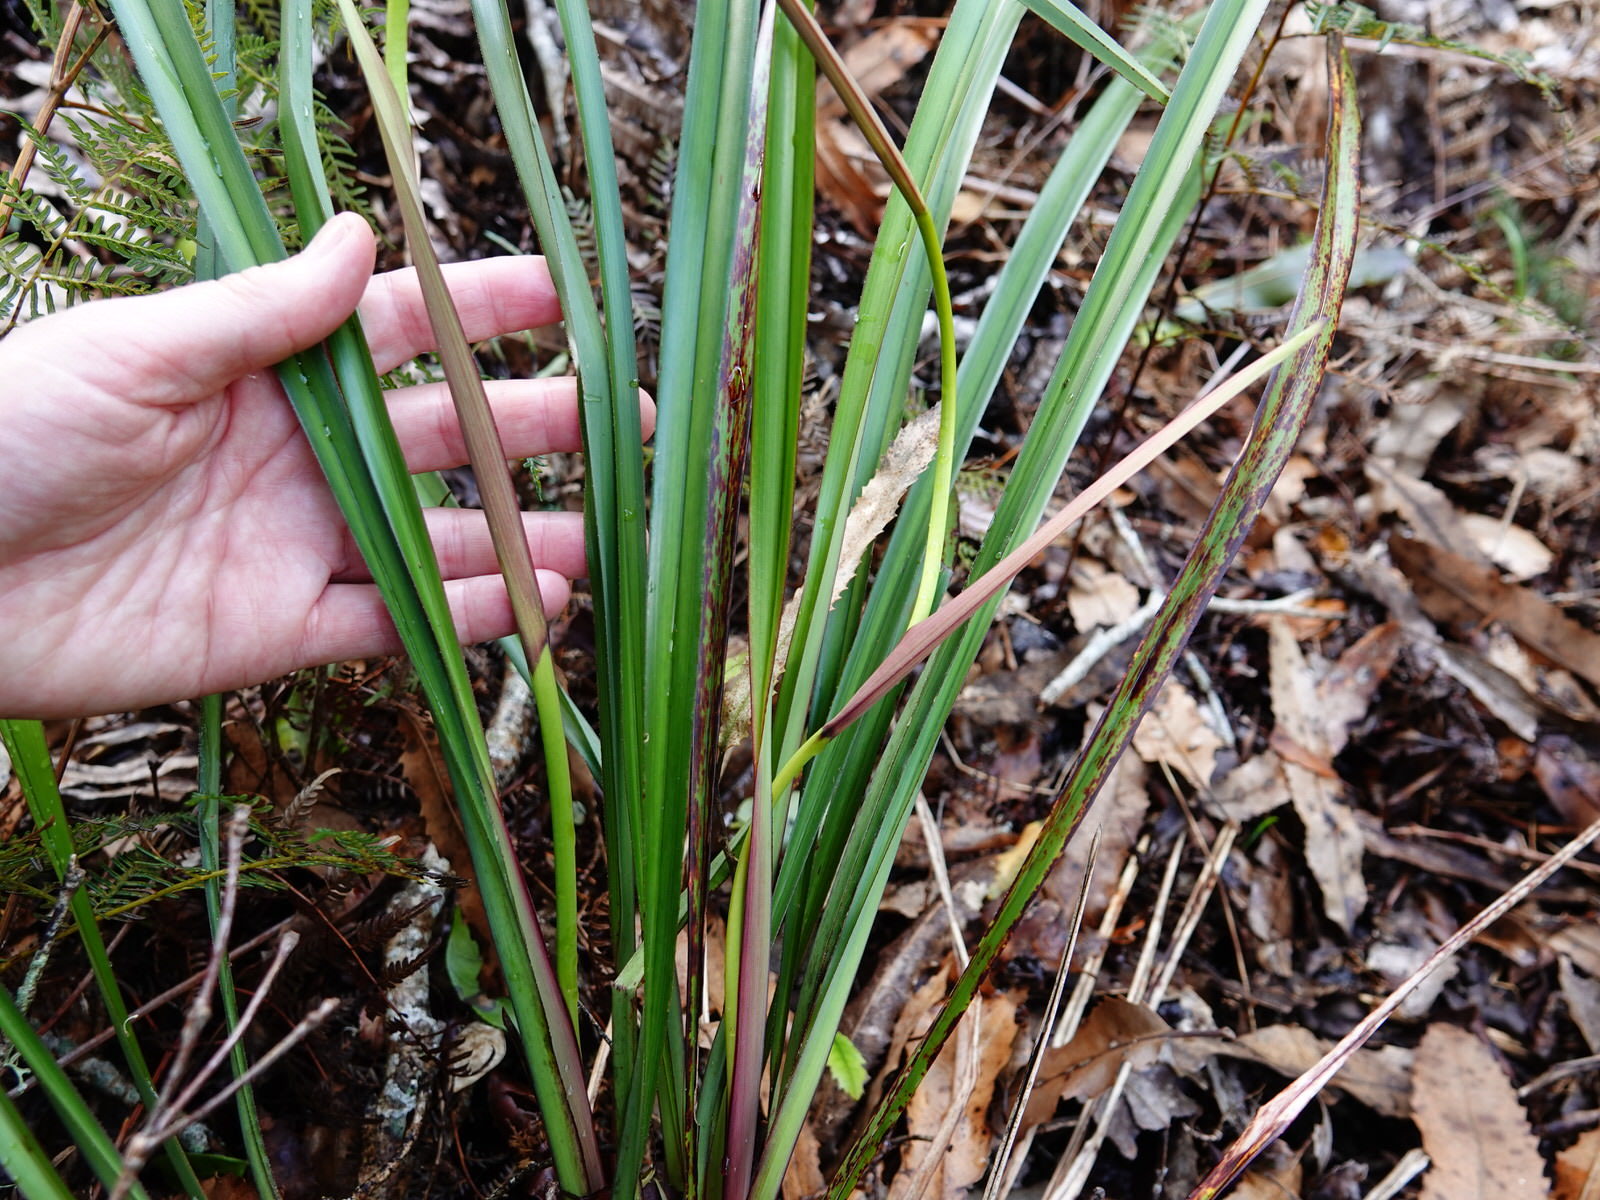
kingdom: Plantae
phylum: Tracheophyta
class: Liliopsida
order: Asparagales
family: Asphodelaceae
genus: Dianella
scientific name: Dianella nigra
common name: New zealand-blueberry
